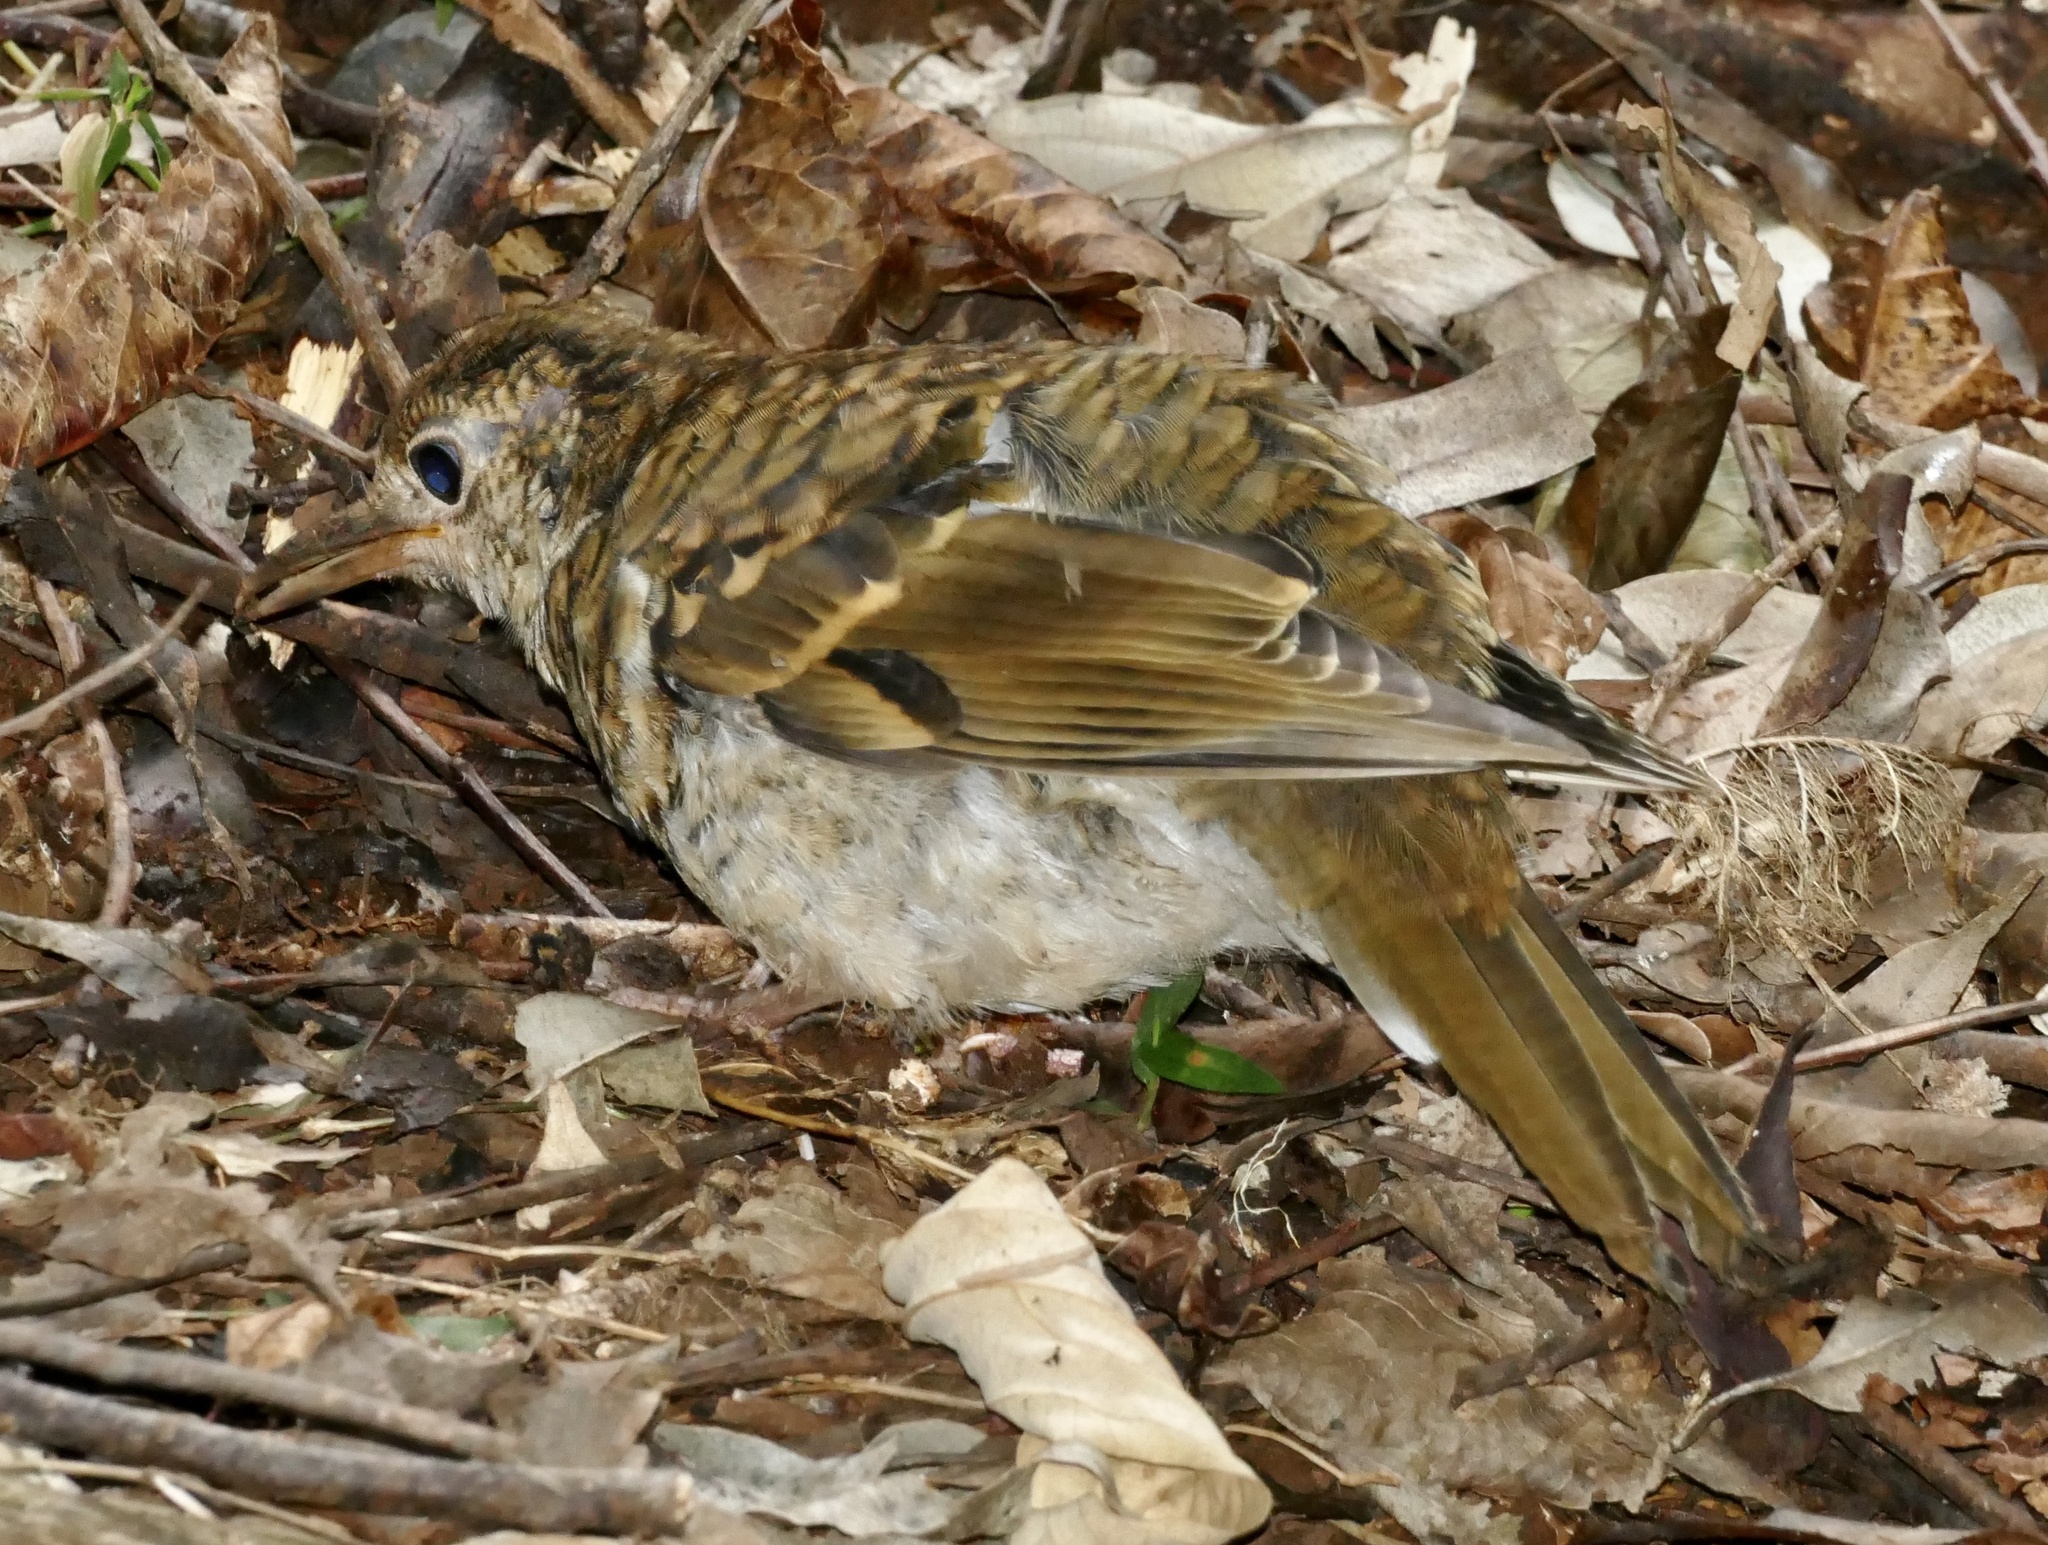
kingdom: Animalia
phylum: Chordata
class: Aves
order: Passeriformes
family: Turdidae
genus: Zoothera
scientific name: Zoothera heinei
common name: Russet-tailed thrush
